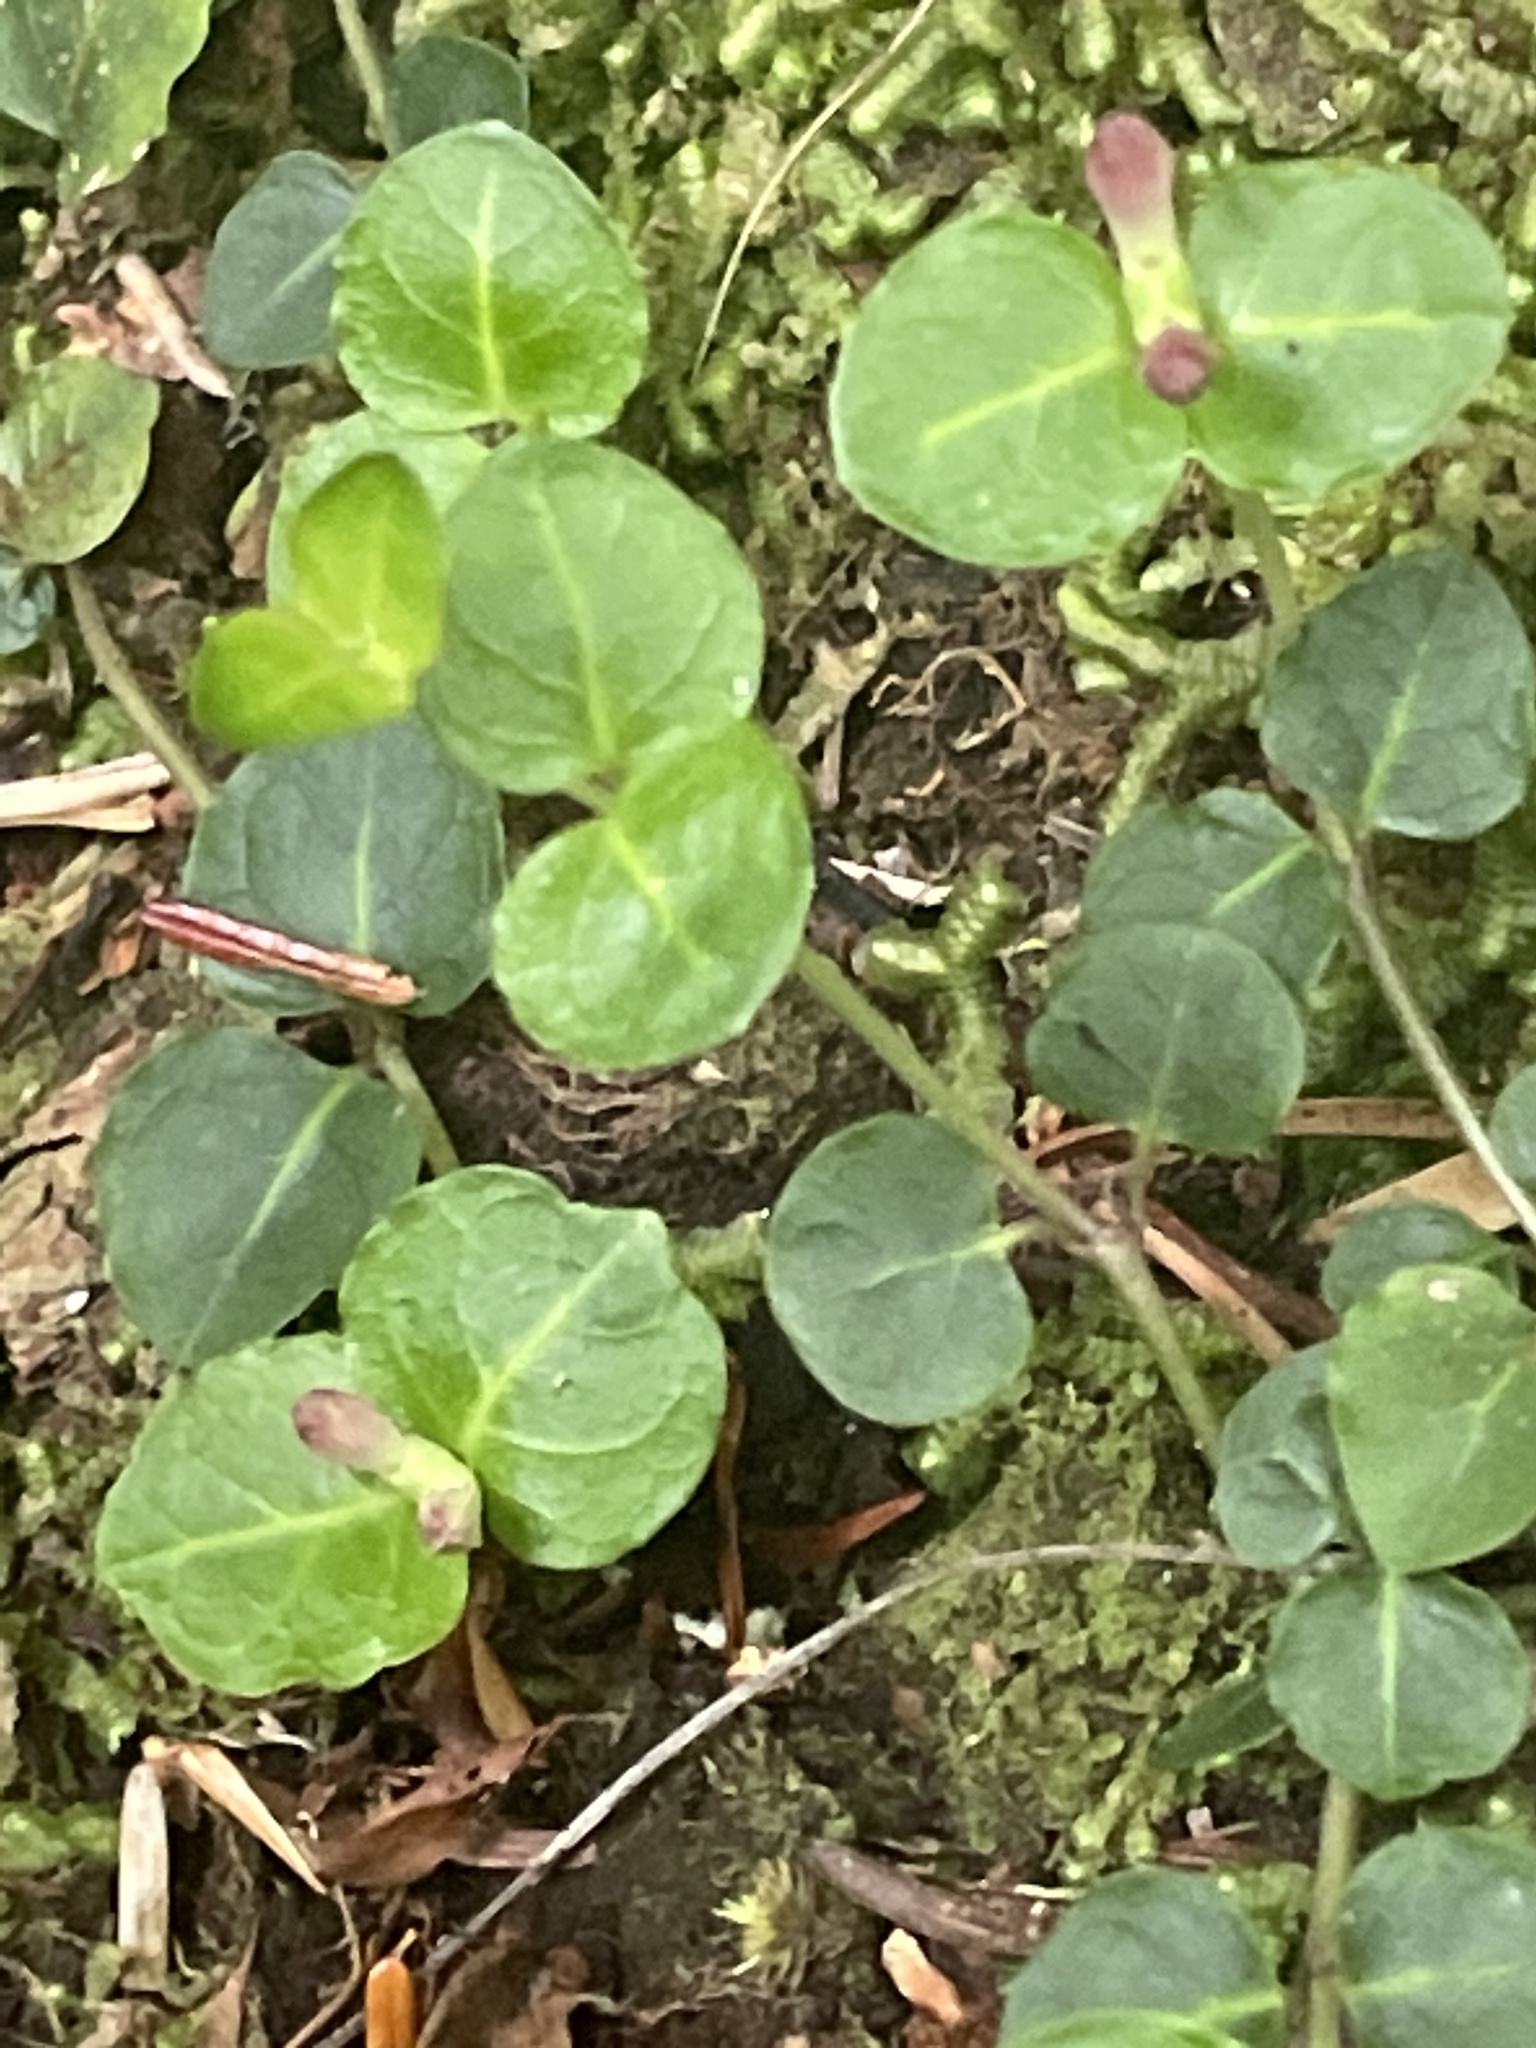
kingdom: Plantae
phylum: Tracheophyta
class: Magnoliopsida
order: Gentianales
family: Rubiaceae
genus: Mitchella
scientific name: Mitchella repens
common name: Partridge-berry
